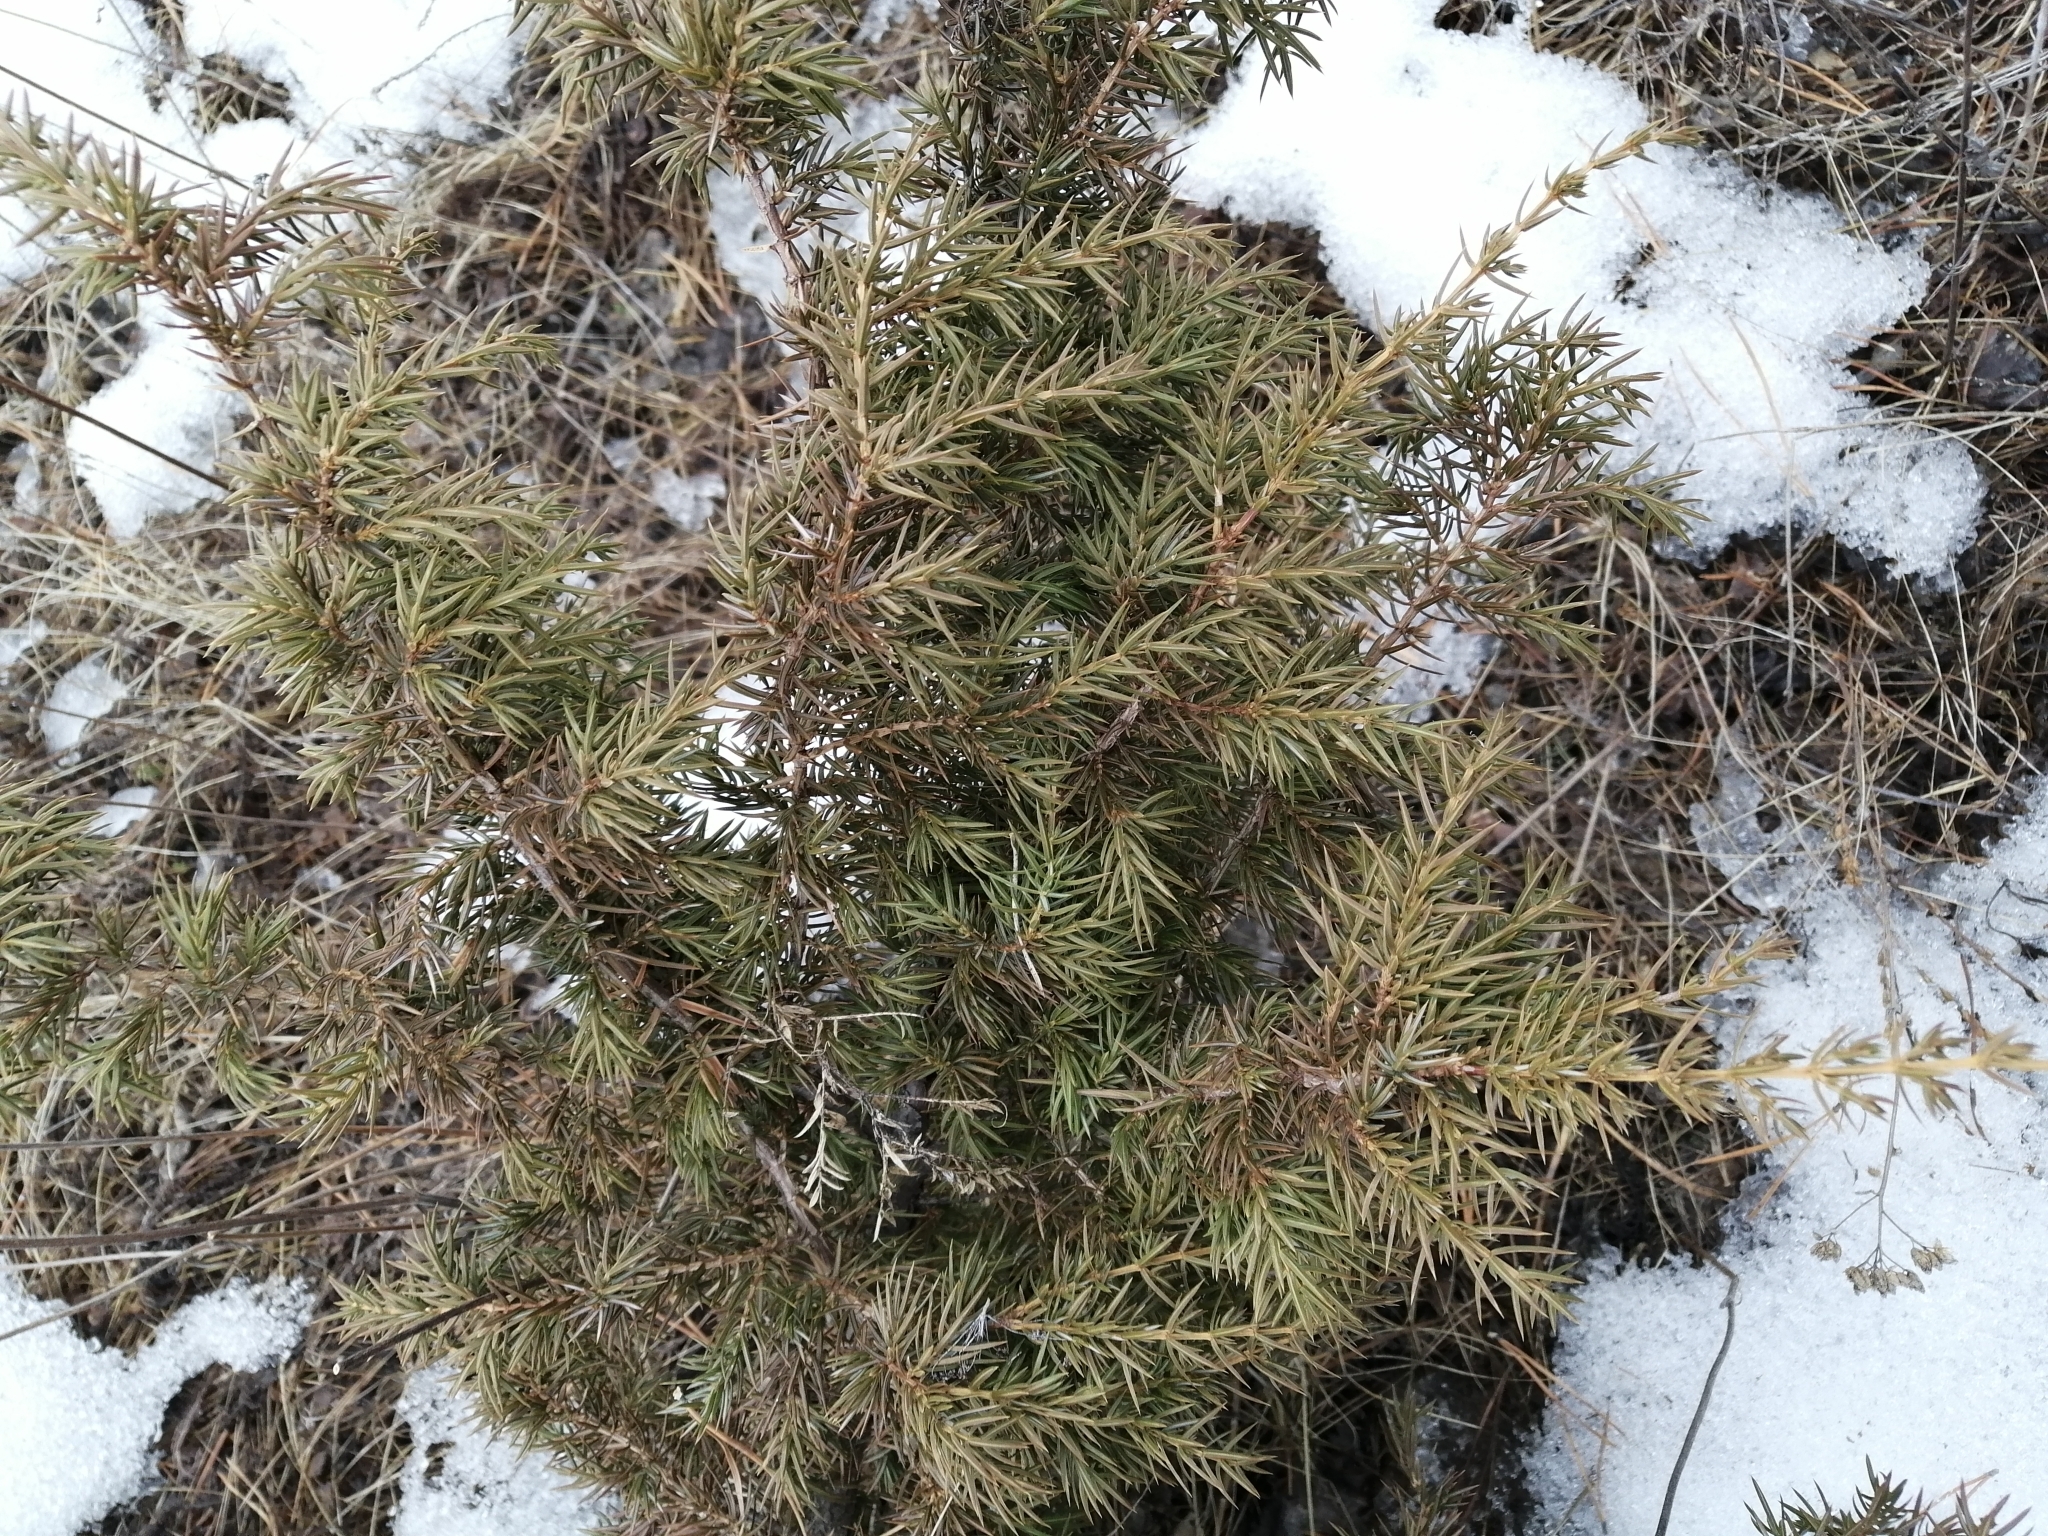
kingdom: Plantae
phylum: Tracheophyta
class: Pinopsida
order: Pinales
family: Cupressaceae
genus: Juniperus
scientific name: Juniperus communis
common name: Common juniper
